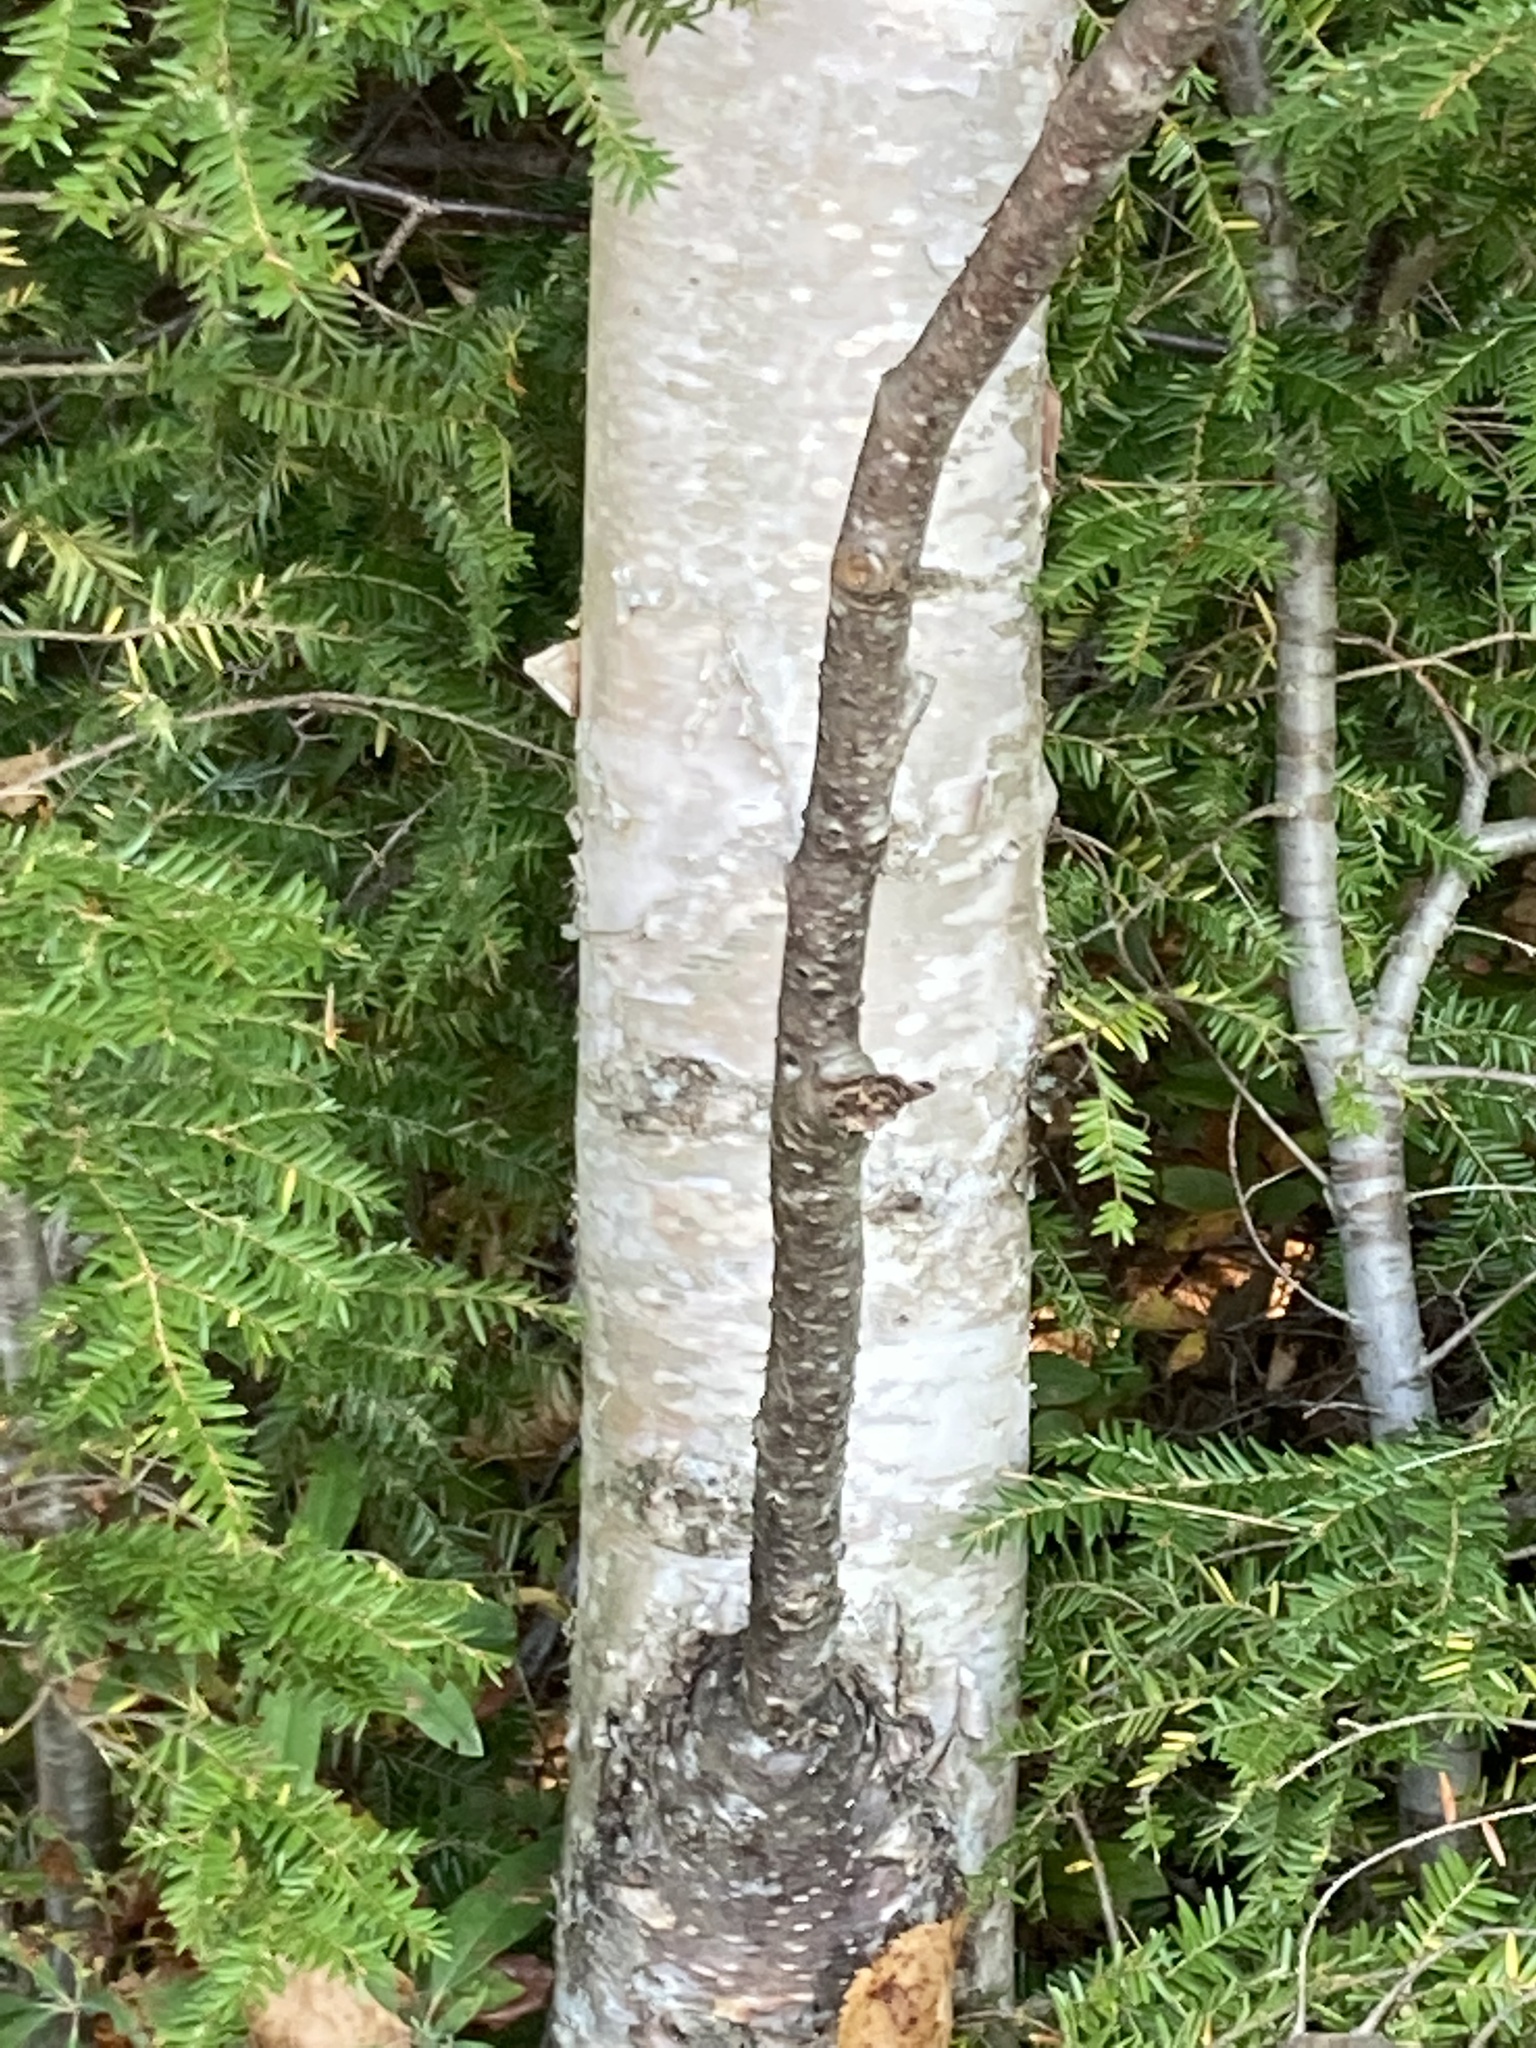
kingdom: Plantae
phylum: Tracheophyta
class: Magnoliopsida
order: Fagales
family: Betulaceae
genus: Betula
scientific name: Betula papyrifera
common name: Paper birch
